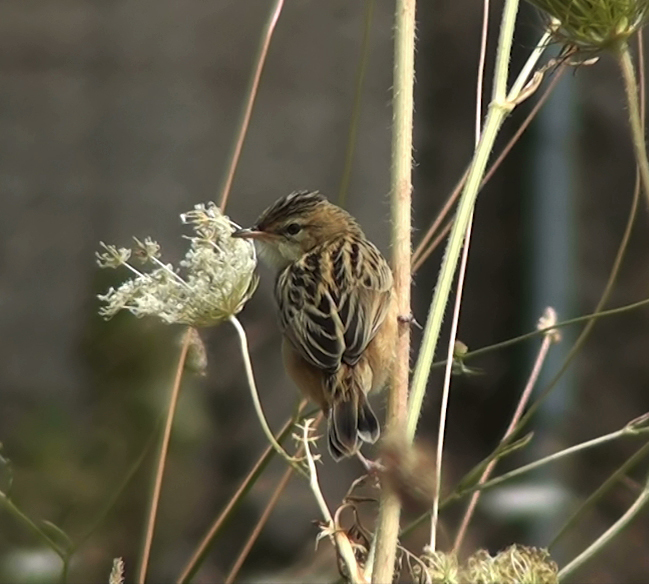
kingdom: Animalia
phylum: Chordata
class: Aves
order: Passeriformes
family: Cisticolidae
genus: Cisticola
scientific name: Cisticola juncidis
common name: Zitting cisticola
